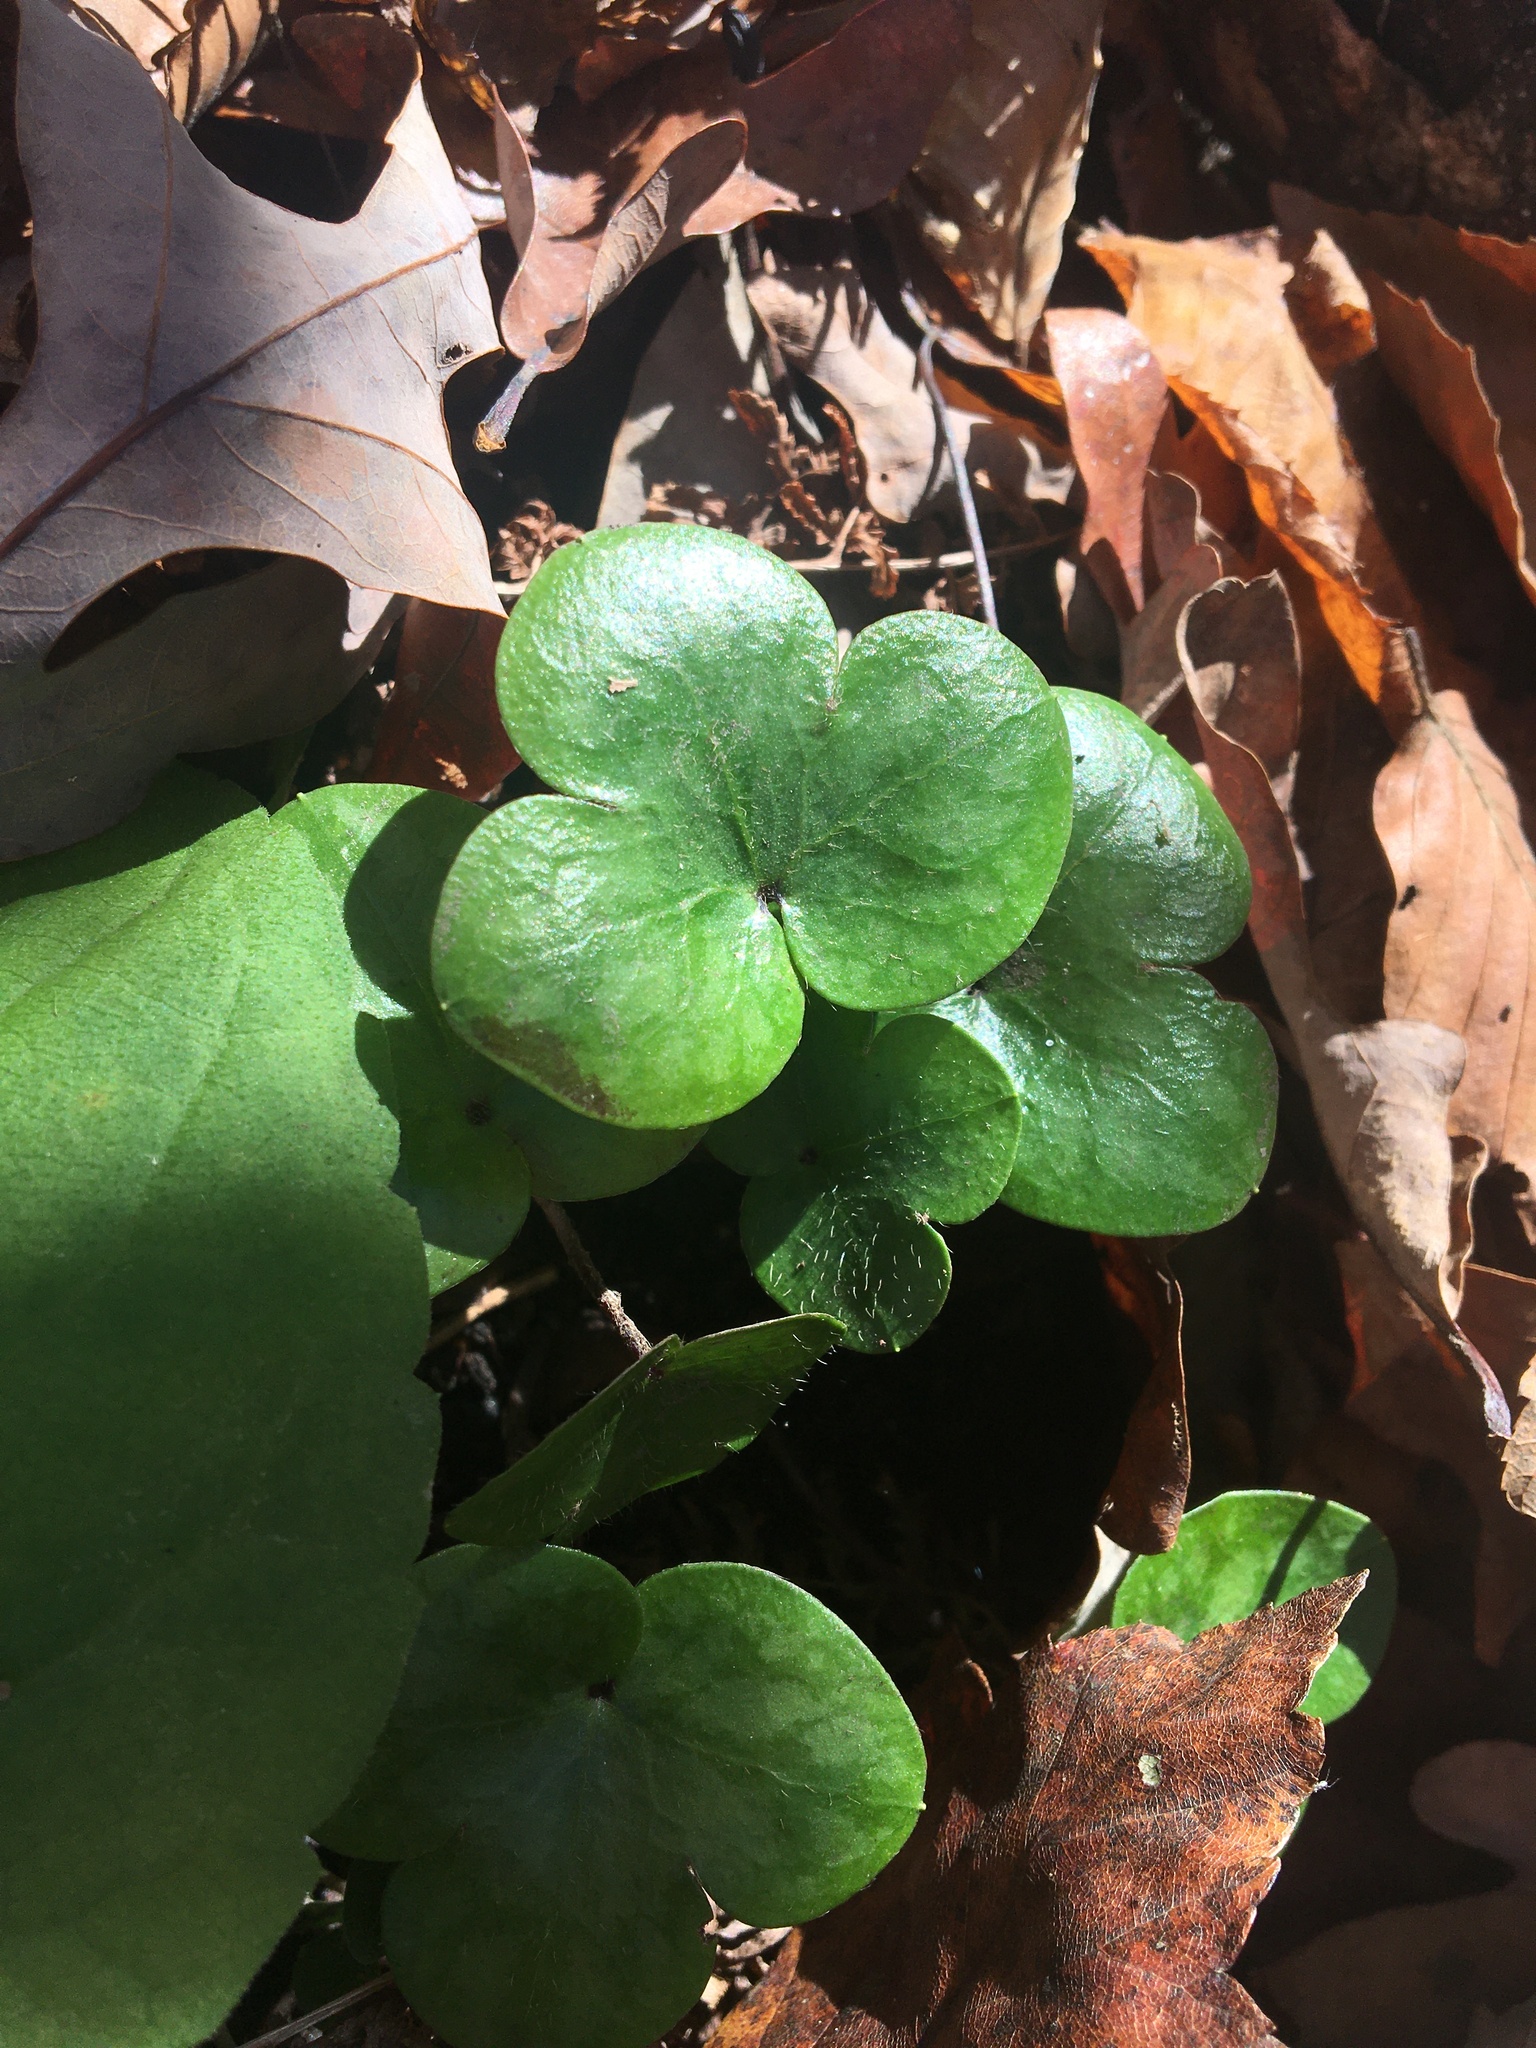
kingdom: Plantae
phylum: Tracheophyta
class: Magnoliopsida
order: Ranunculales
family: Ranunculaceae
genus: Hepatica
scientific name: Hepatica americana
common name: American hepatica
